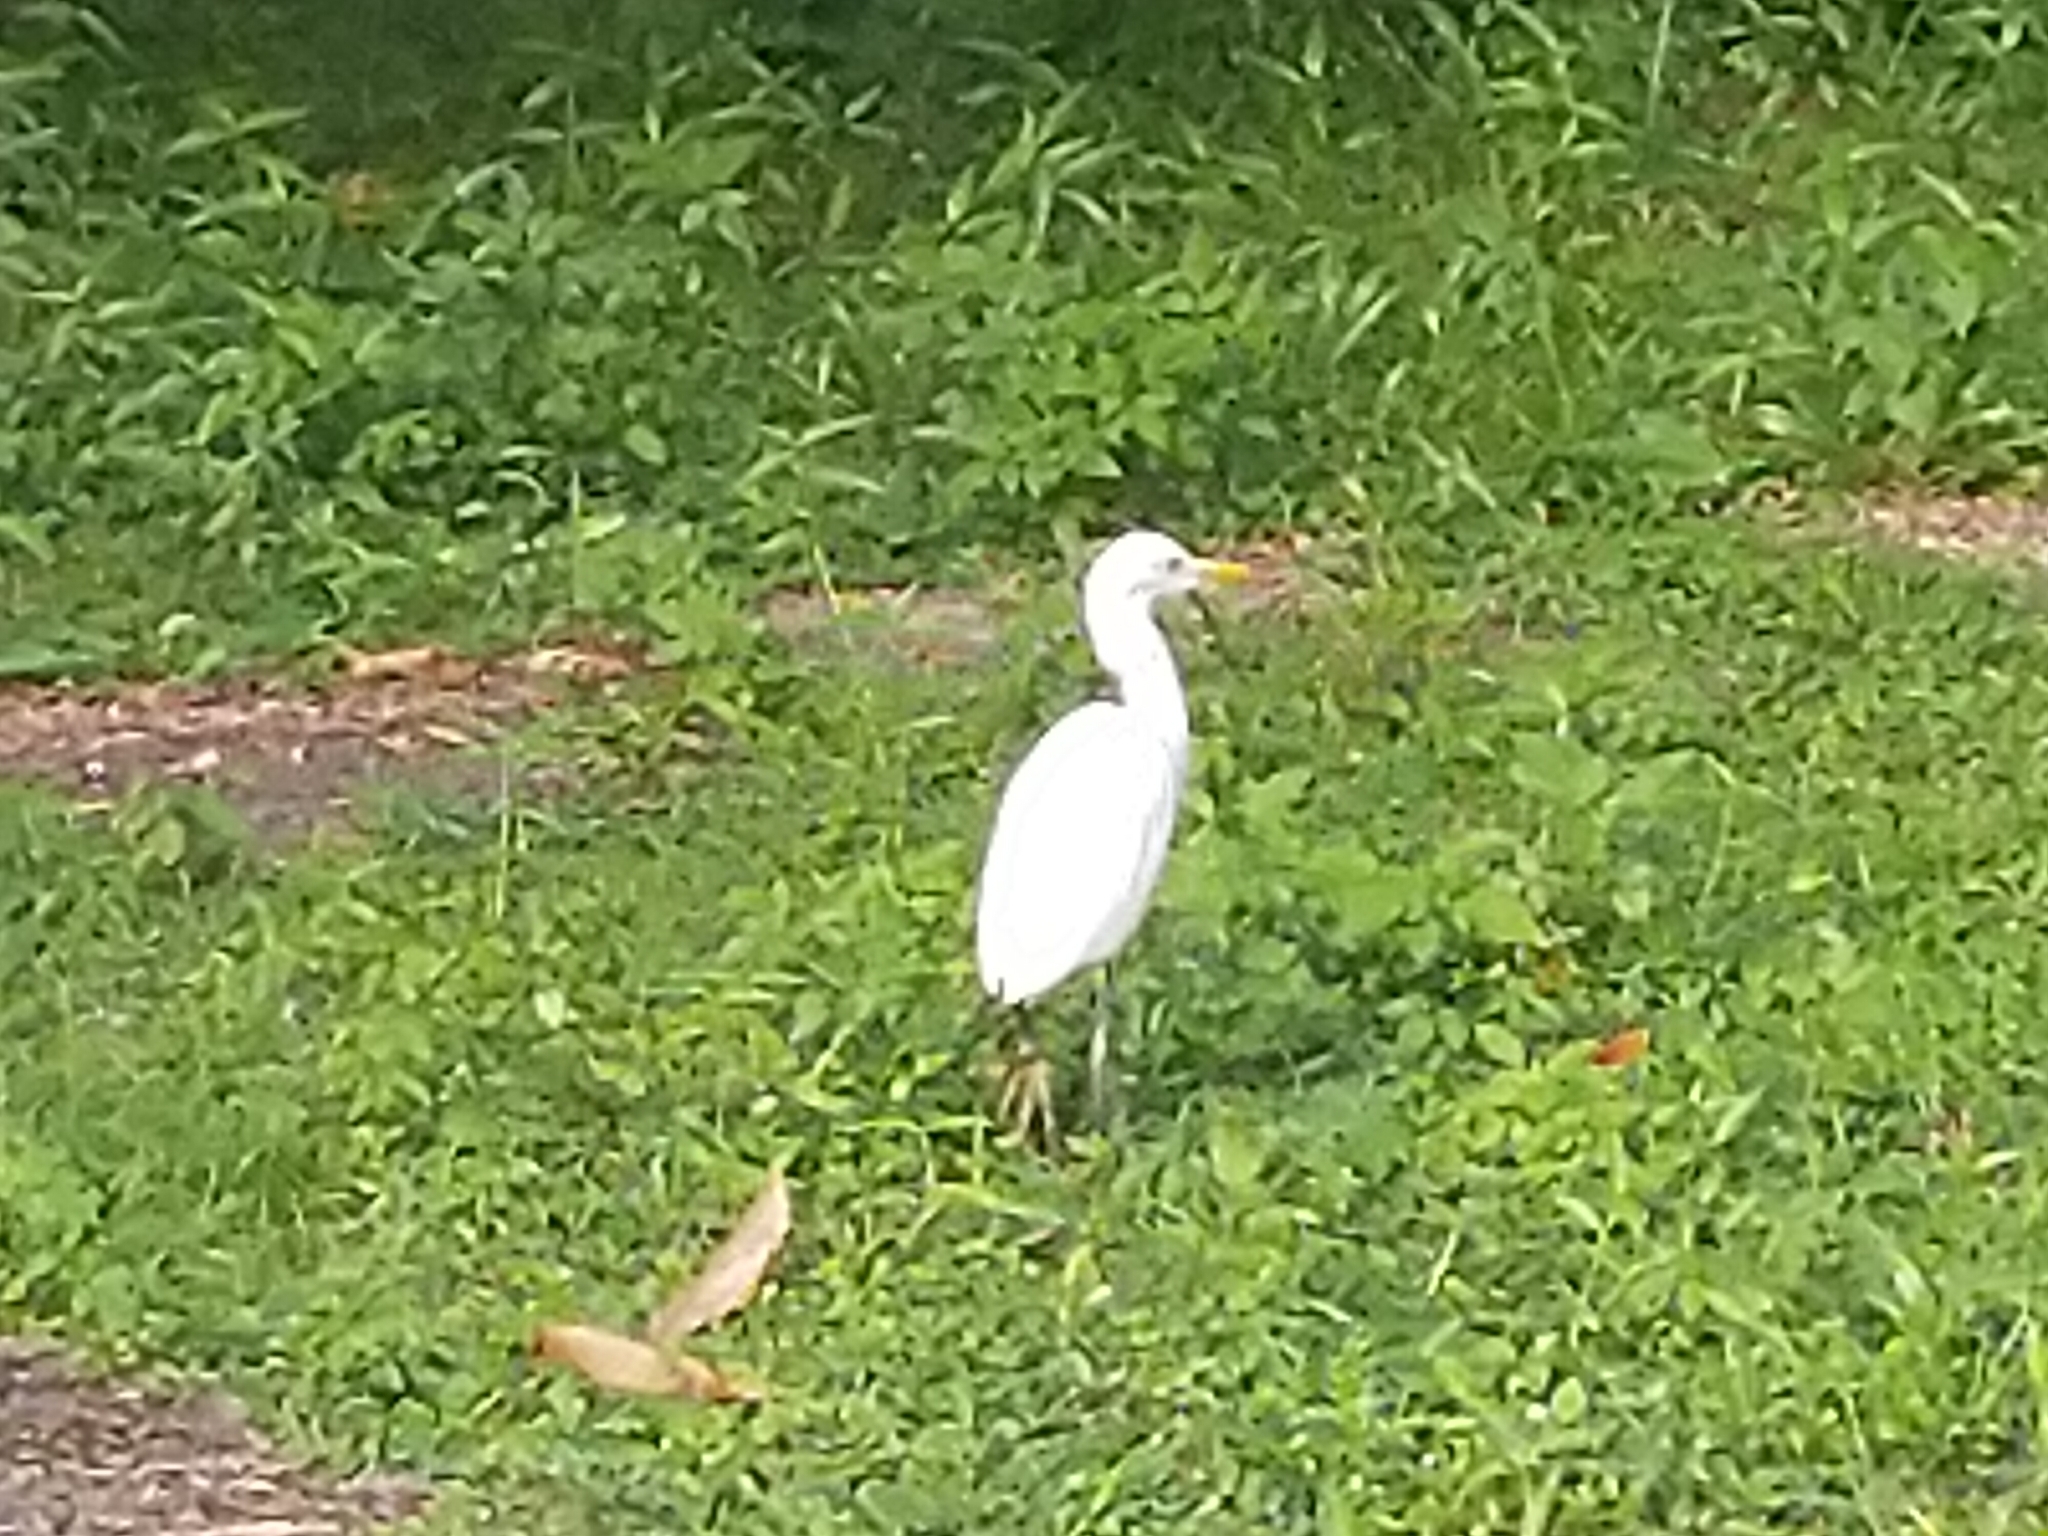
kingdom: Animalia
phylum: Chordata
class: Aves
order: Pelecaniformes
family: Ardeidae
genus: Bubulcus
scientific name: Bubulcus coromandus
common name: Eastern cattle egret
